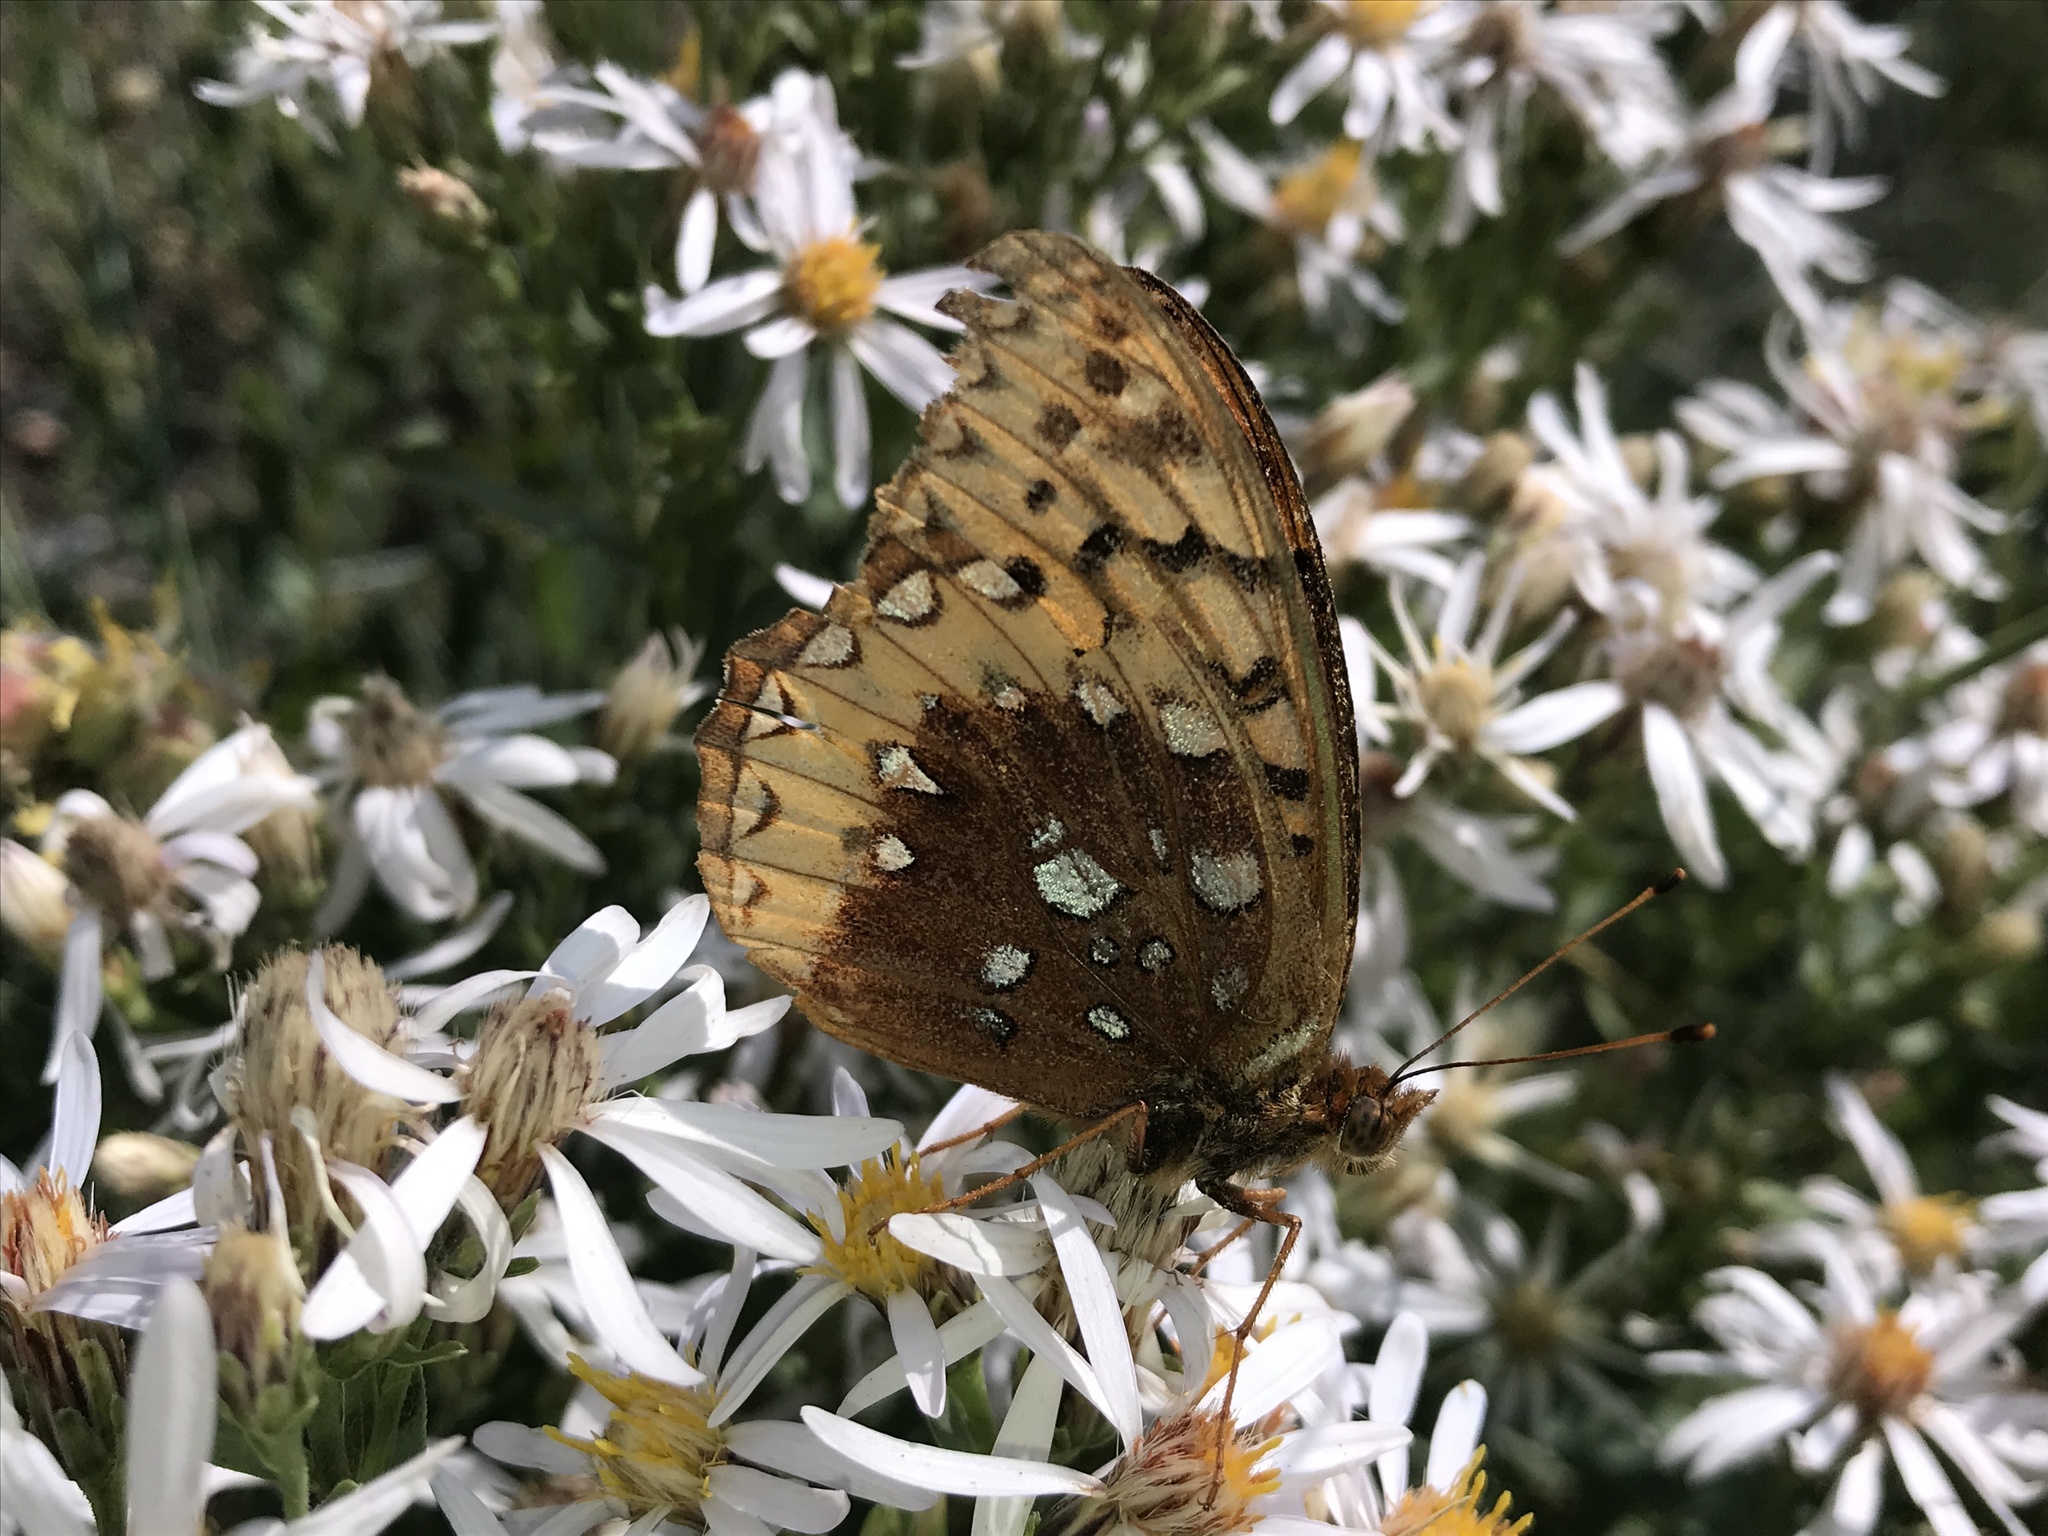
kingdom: Animalia
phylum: Arthropoda
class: Insecta
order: Lepidoptera
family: Nymphalidae
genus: Speyeria
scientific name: Speyeria cybele
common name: Great spangled fritillary
